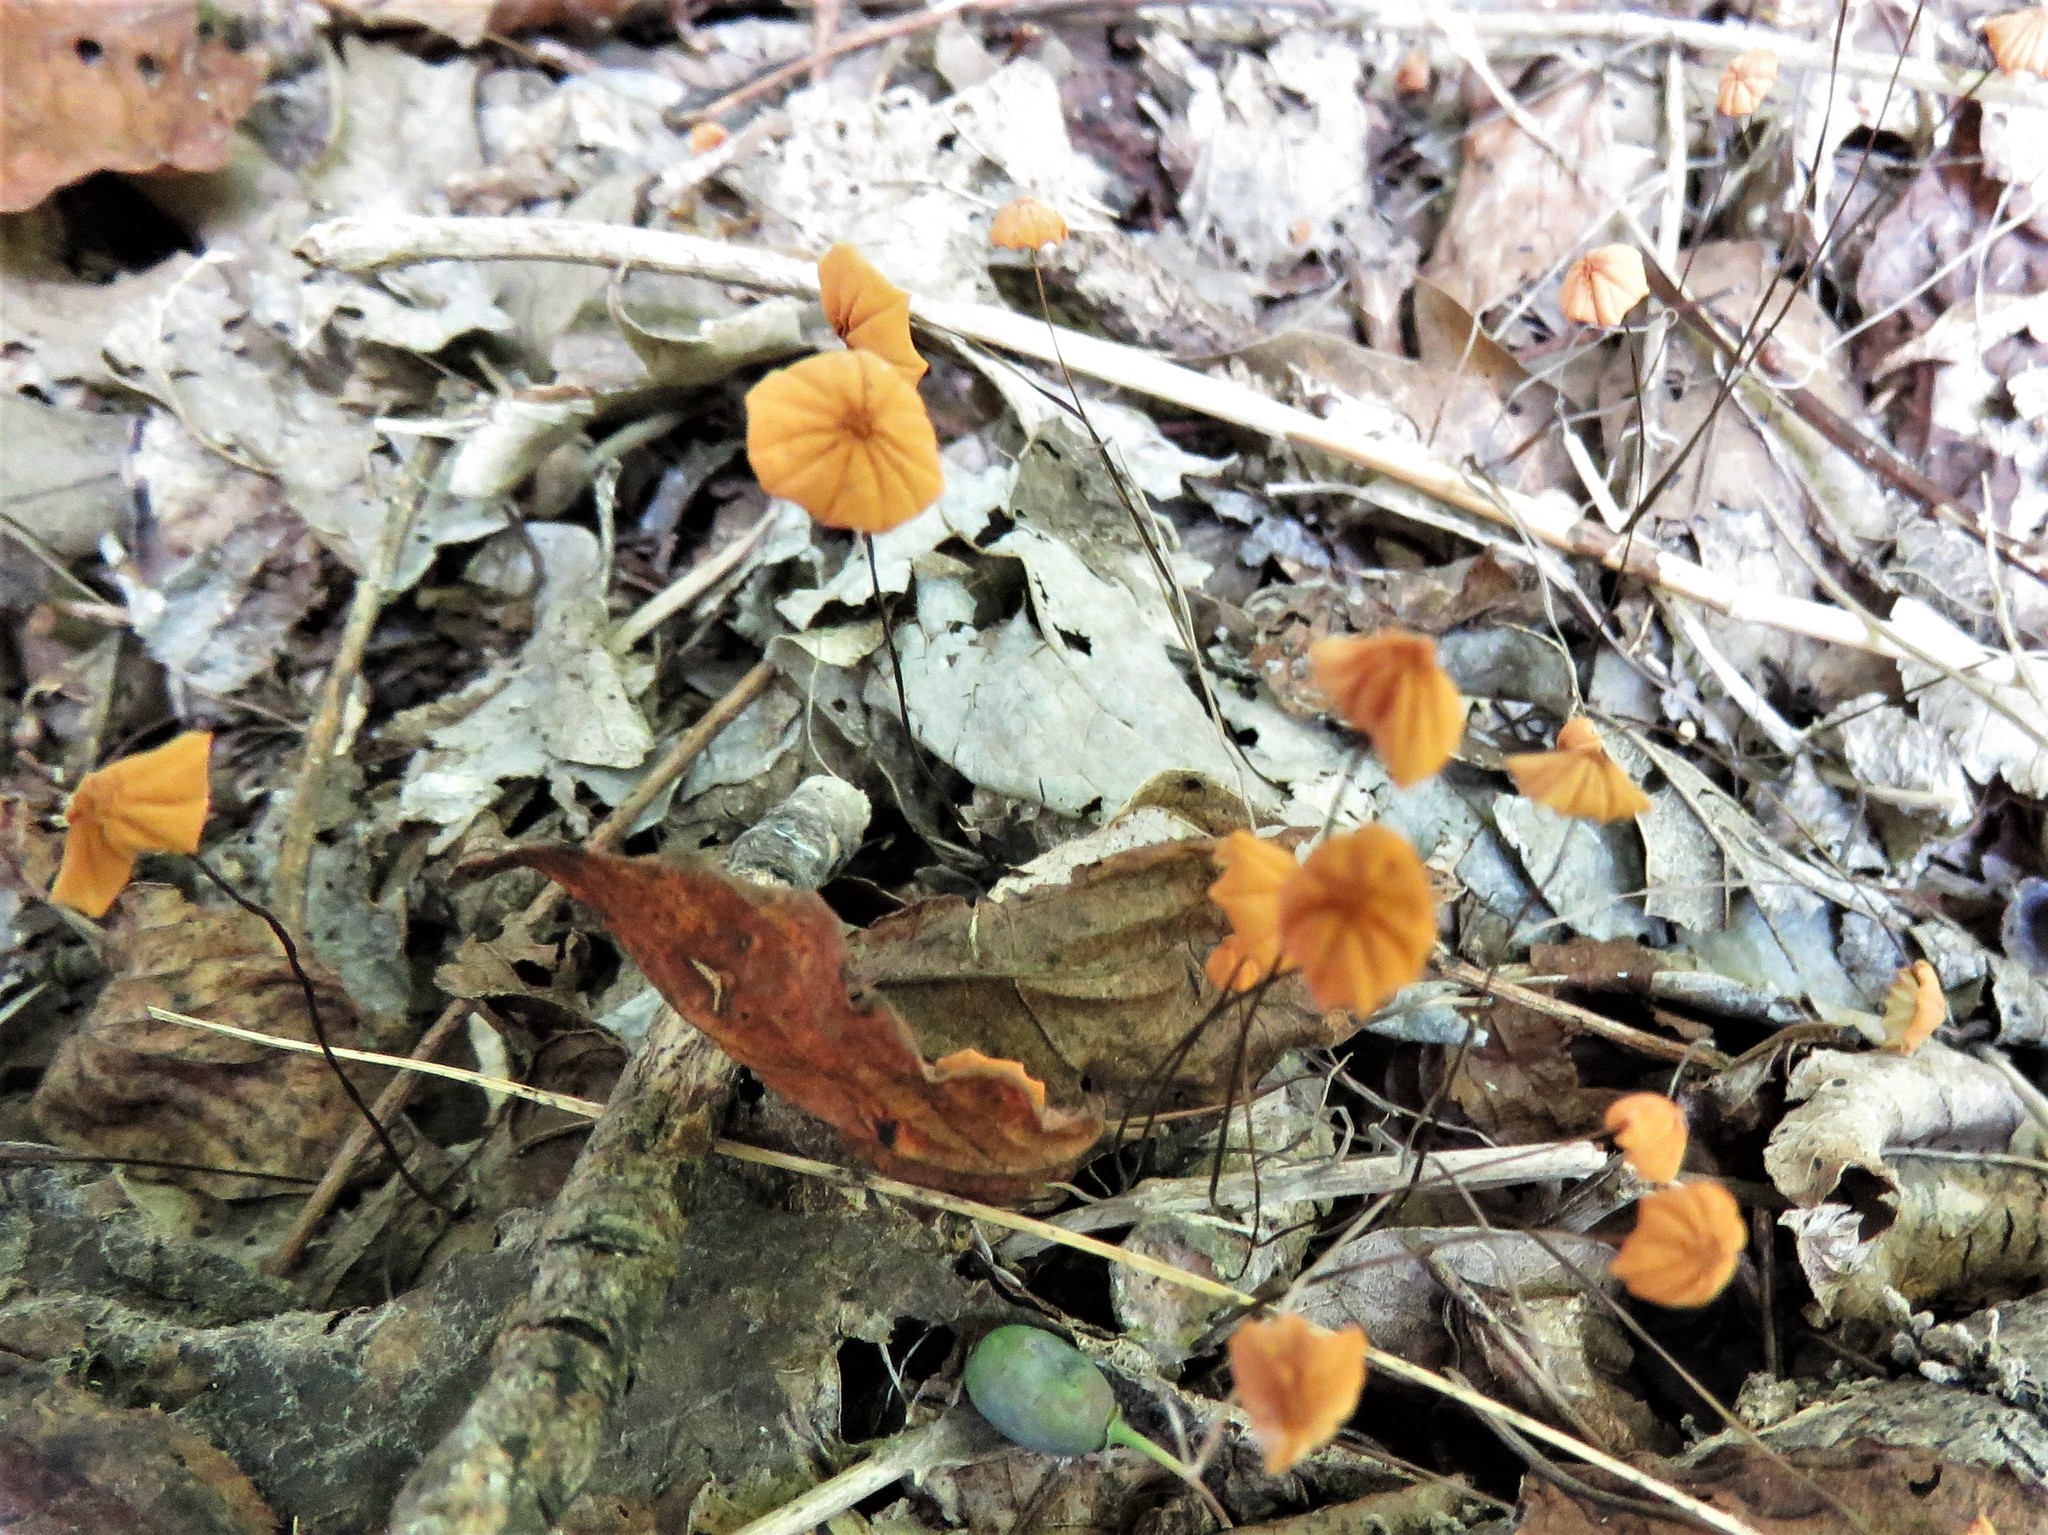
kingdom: Fungi
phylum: Basidiomycota
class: Agaricomycetes
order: Agaricales
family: Marasmiaceae
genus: Marasmius
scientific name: Marasmius siccus
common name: Orange pinwheel
